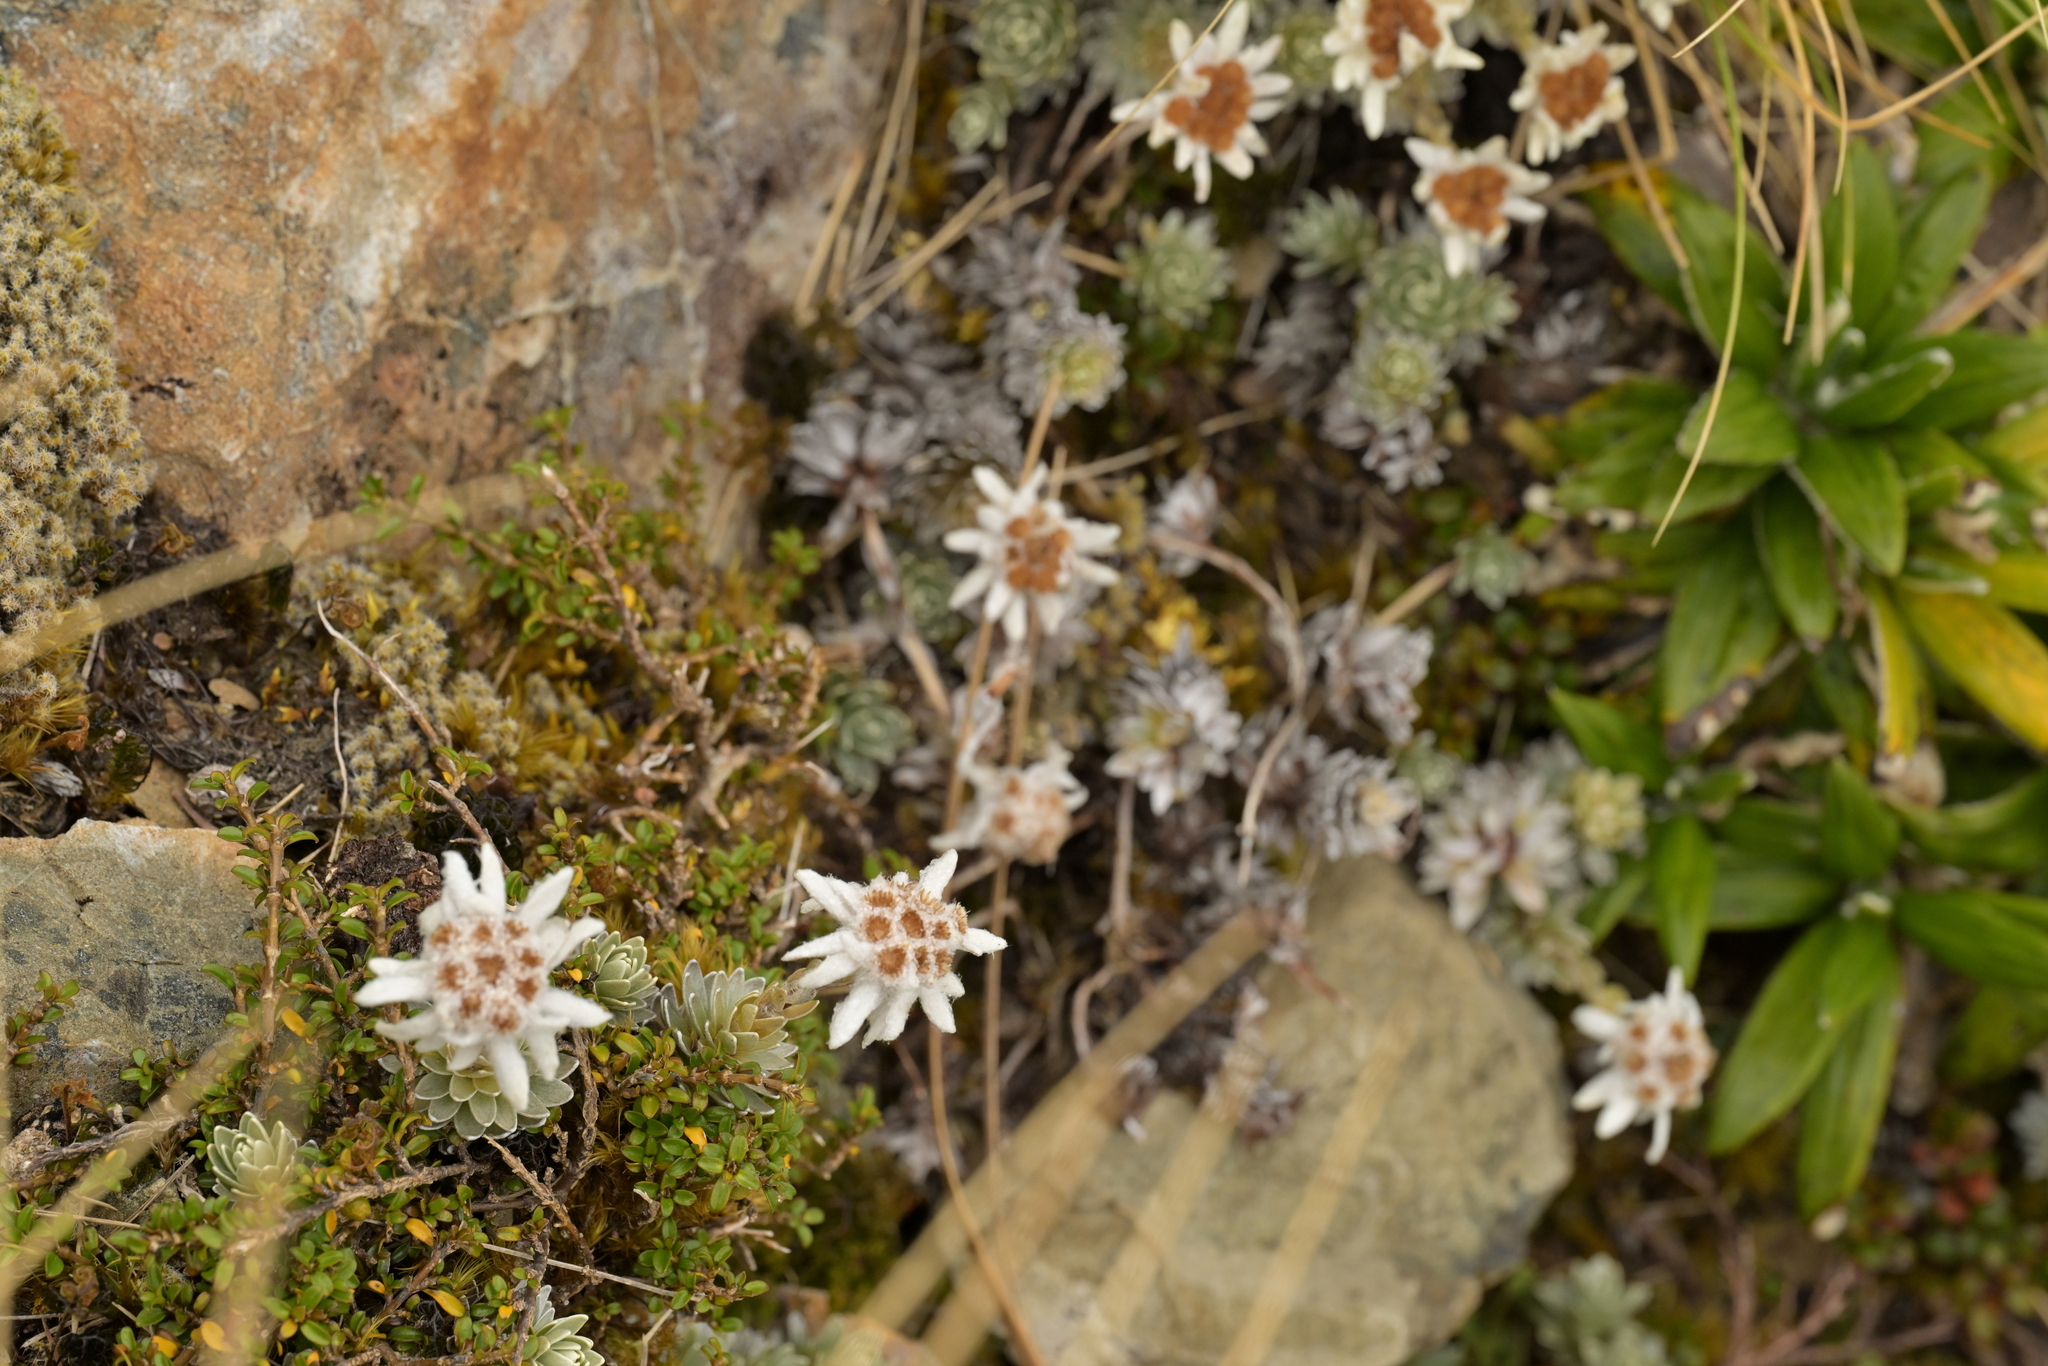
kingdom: Plantae
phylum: Tracheophyta
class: Magnoliopsida
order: Asterales
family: Asteraceae
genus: Leucogenes
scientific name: Leucogenes leontopodium
